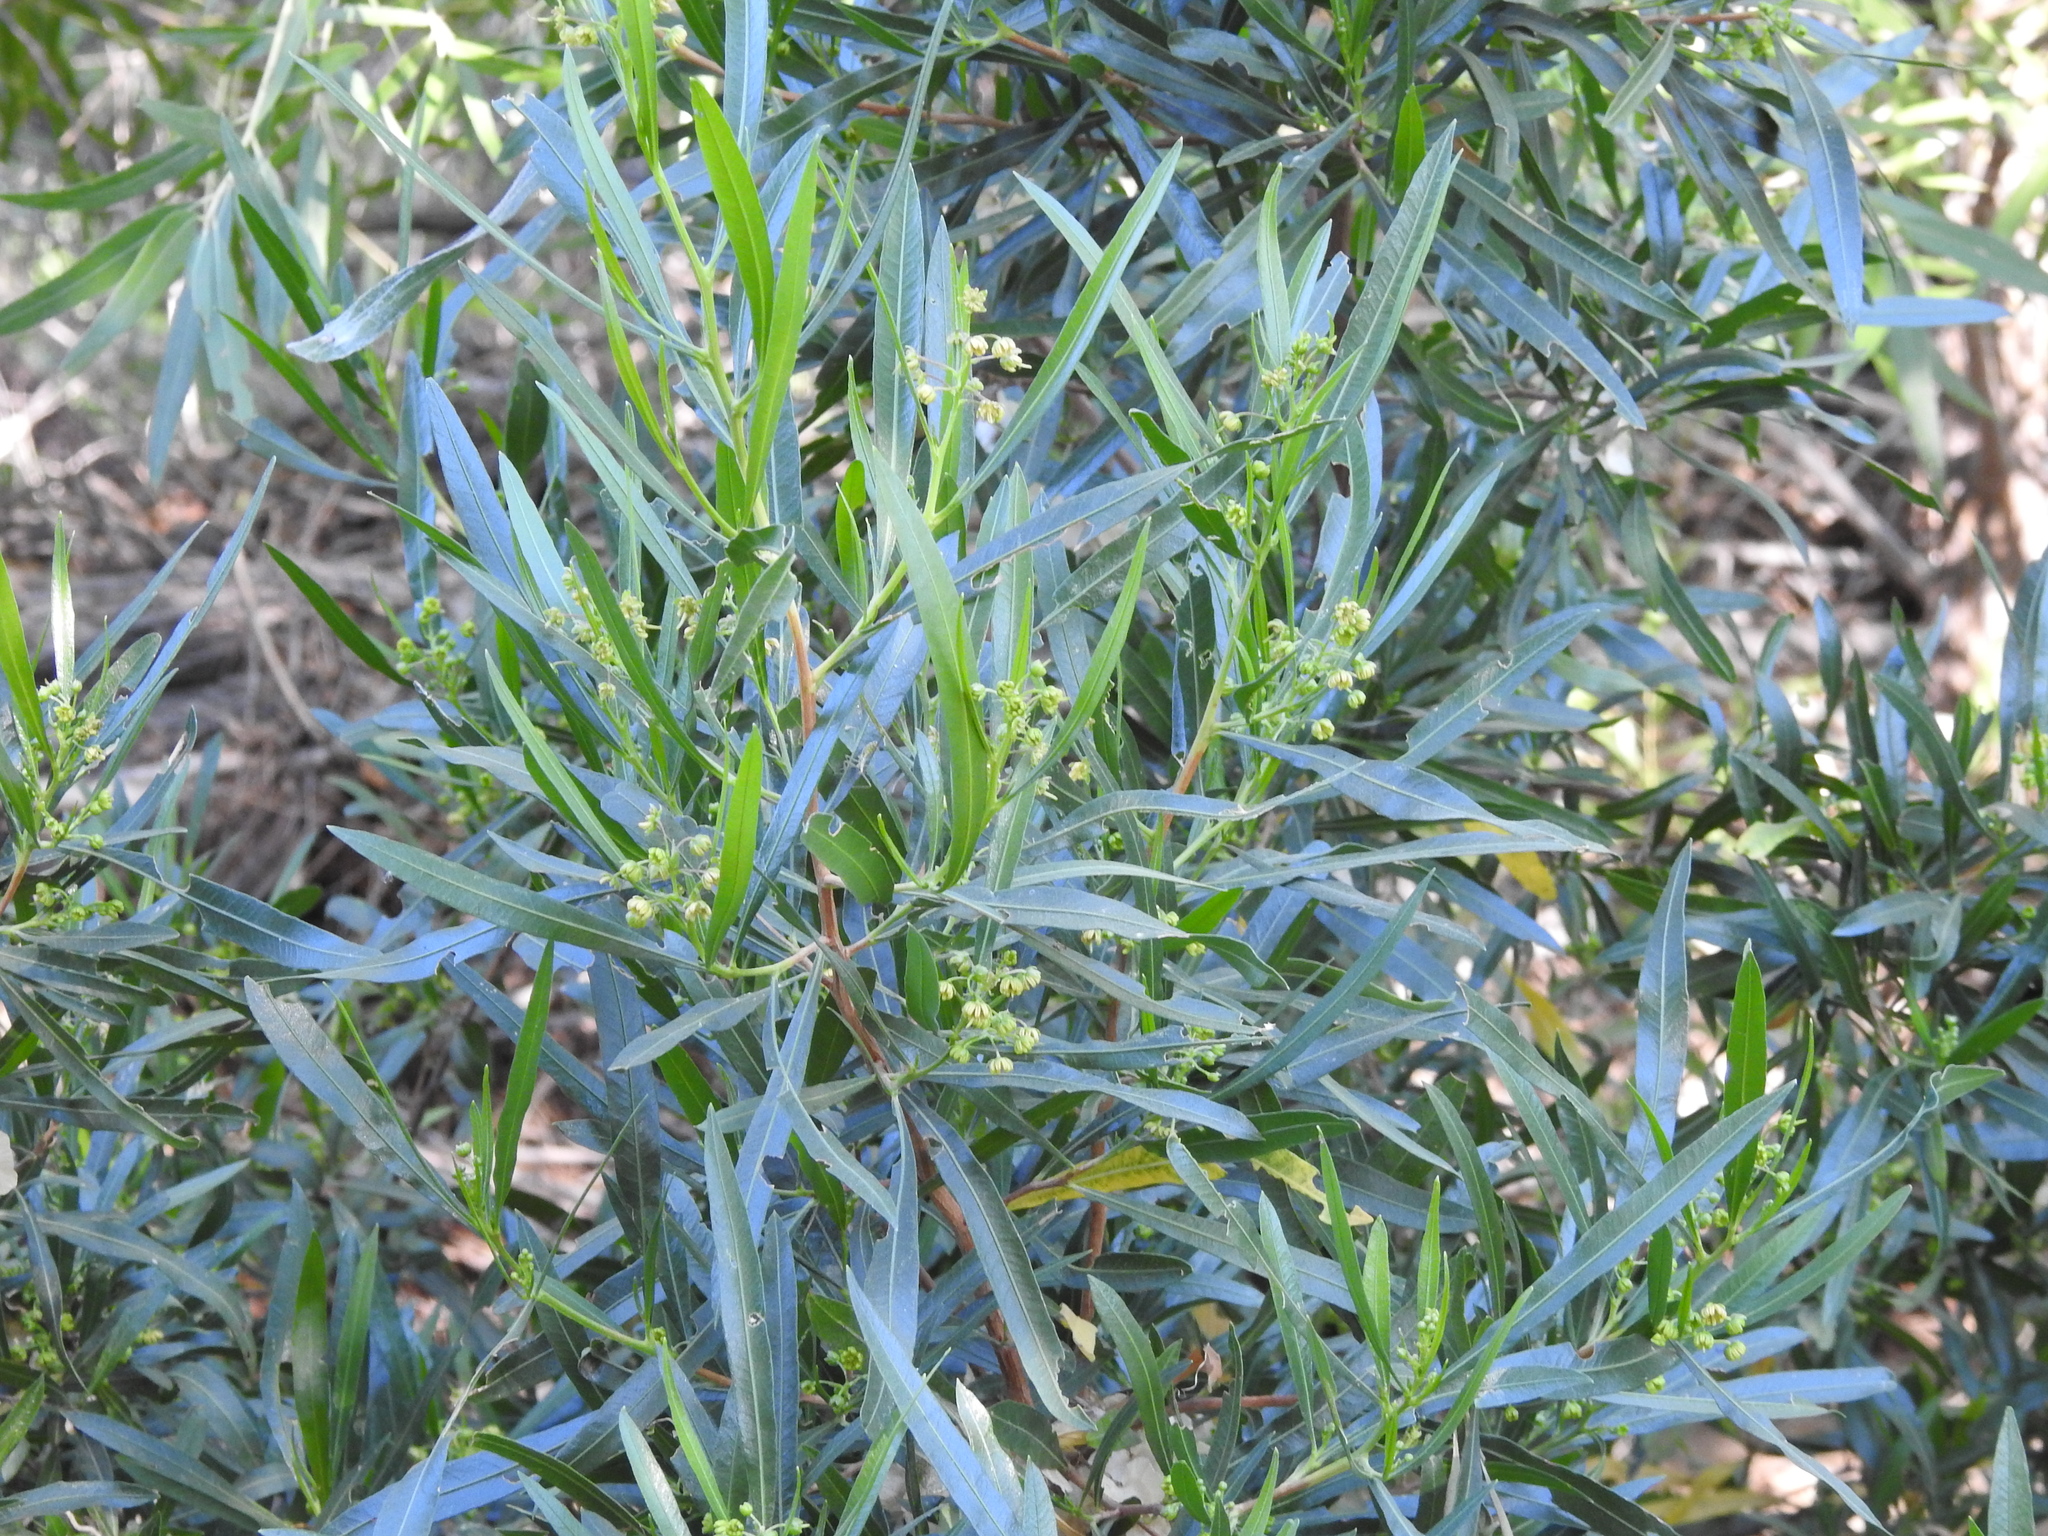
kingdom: Plantae
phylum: Tracheophyta
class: Magnoliopsida
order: Sapindales
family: Sapindaceae
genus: Dodonaea
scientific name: Dodonaea viscosa
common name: Hopbush
